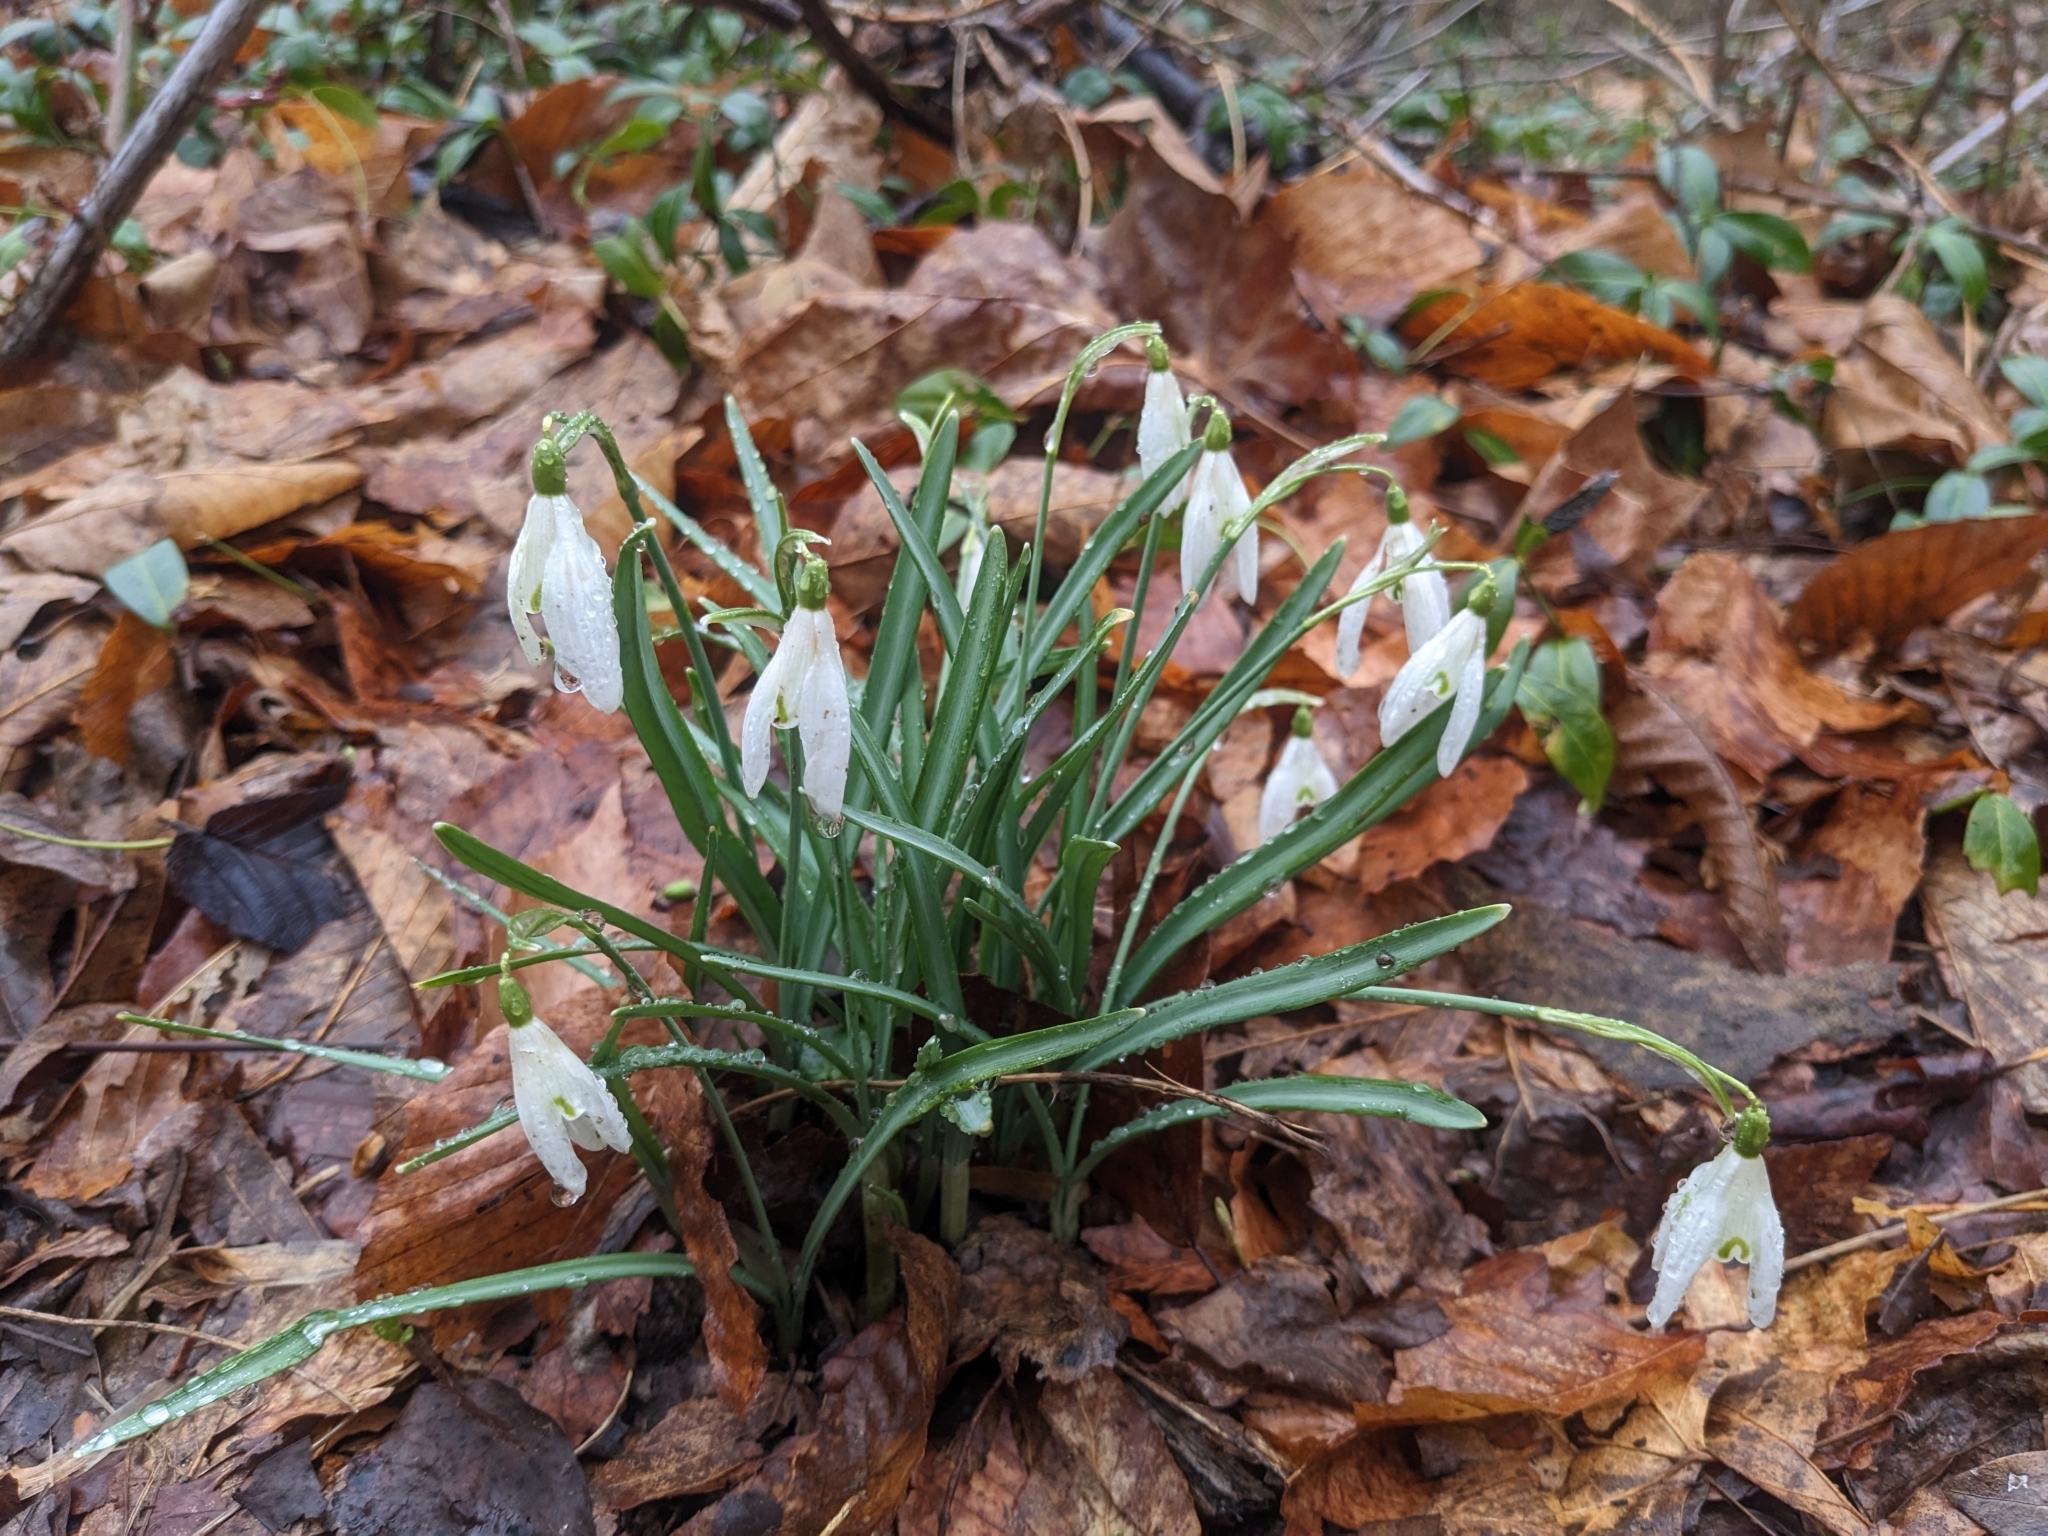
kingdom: Plantae
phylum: Tracheophyta
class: Liliopsida
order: Asparagales
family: Amaryllidaceae
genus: Galanthus
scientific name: Galanthus nivalis
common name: Snowdrop
